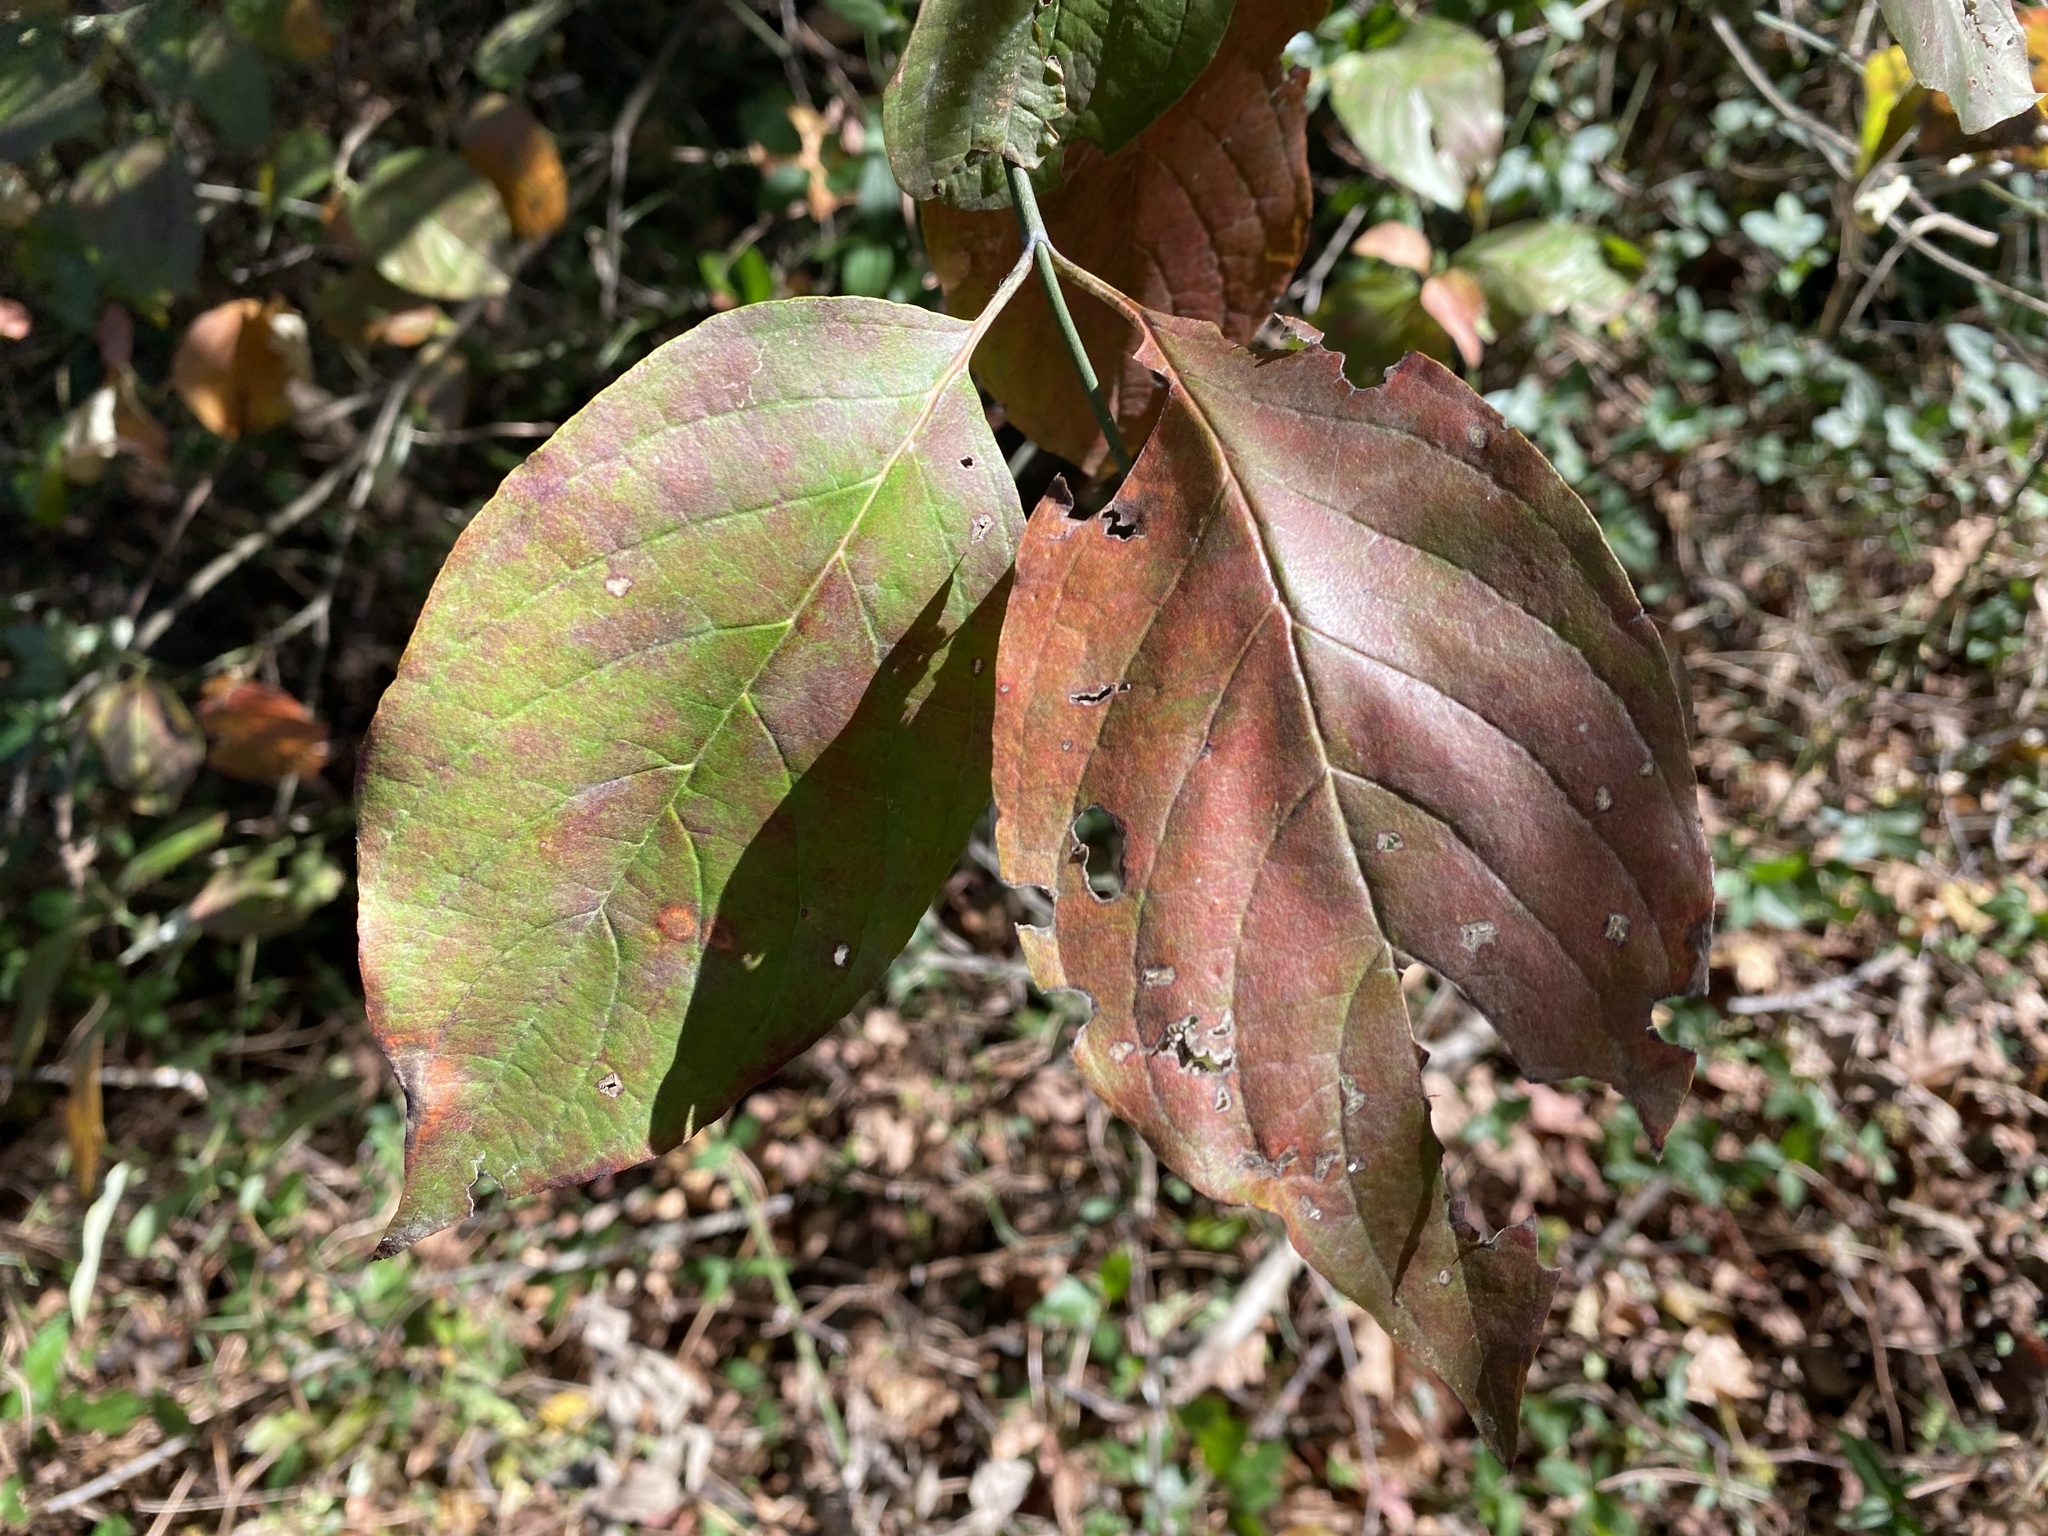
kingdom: Plantae
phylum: Tracheophyta
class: Magnoliopsida
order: Cornales
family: Cornaceae
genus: Cornus
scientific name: Cornus florida
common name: Flowering dogwood
